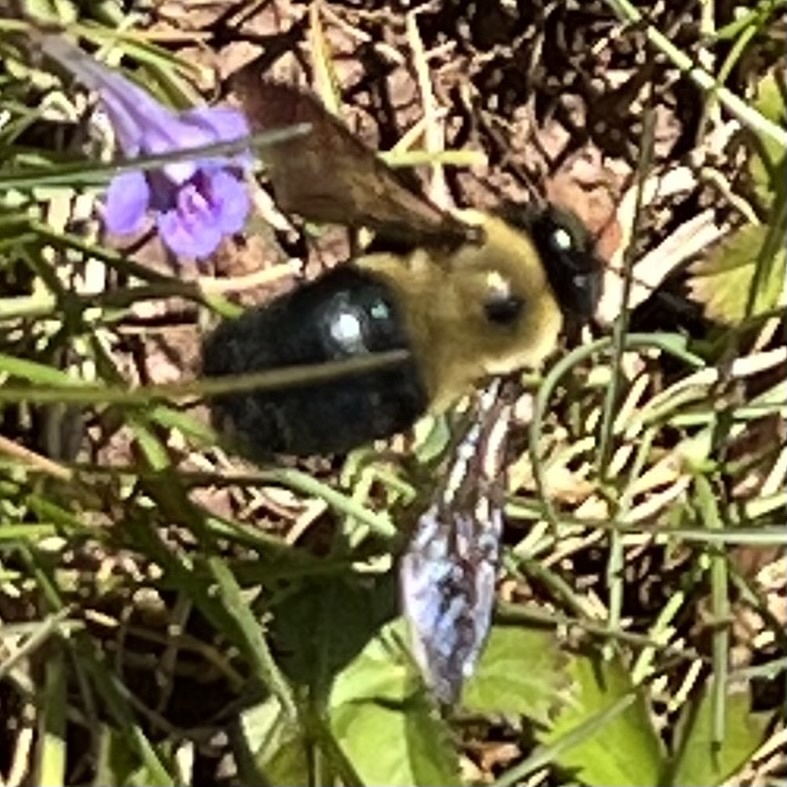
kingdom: Animalia
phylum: Arthropoda
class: Insecta
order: Hymenoptera
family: Apidae
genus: Xylocopa
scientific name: Xylocopa virginica
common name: Carpenter bee
